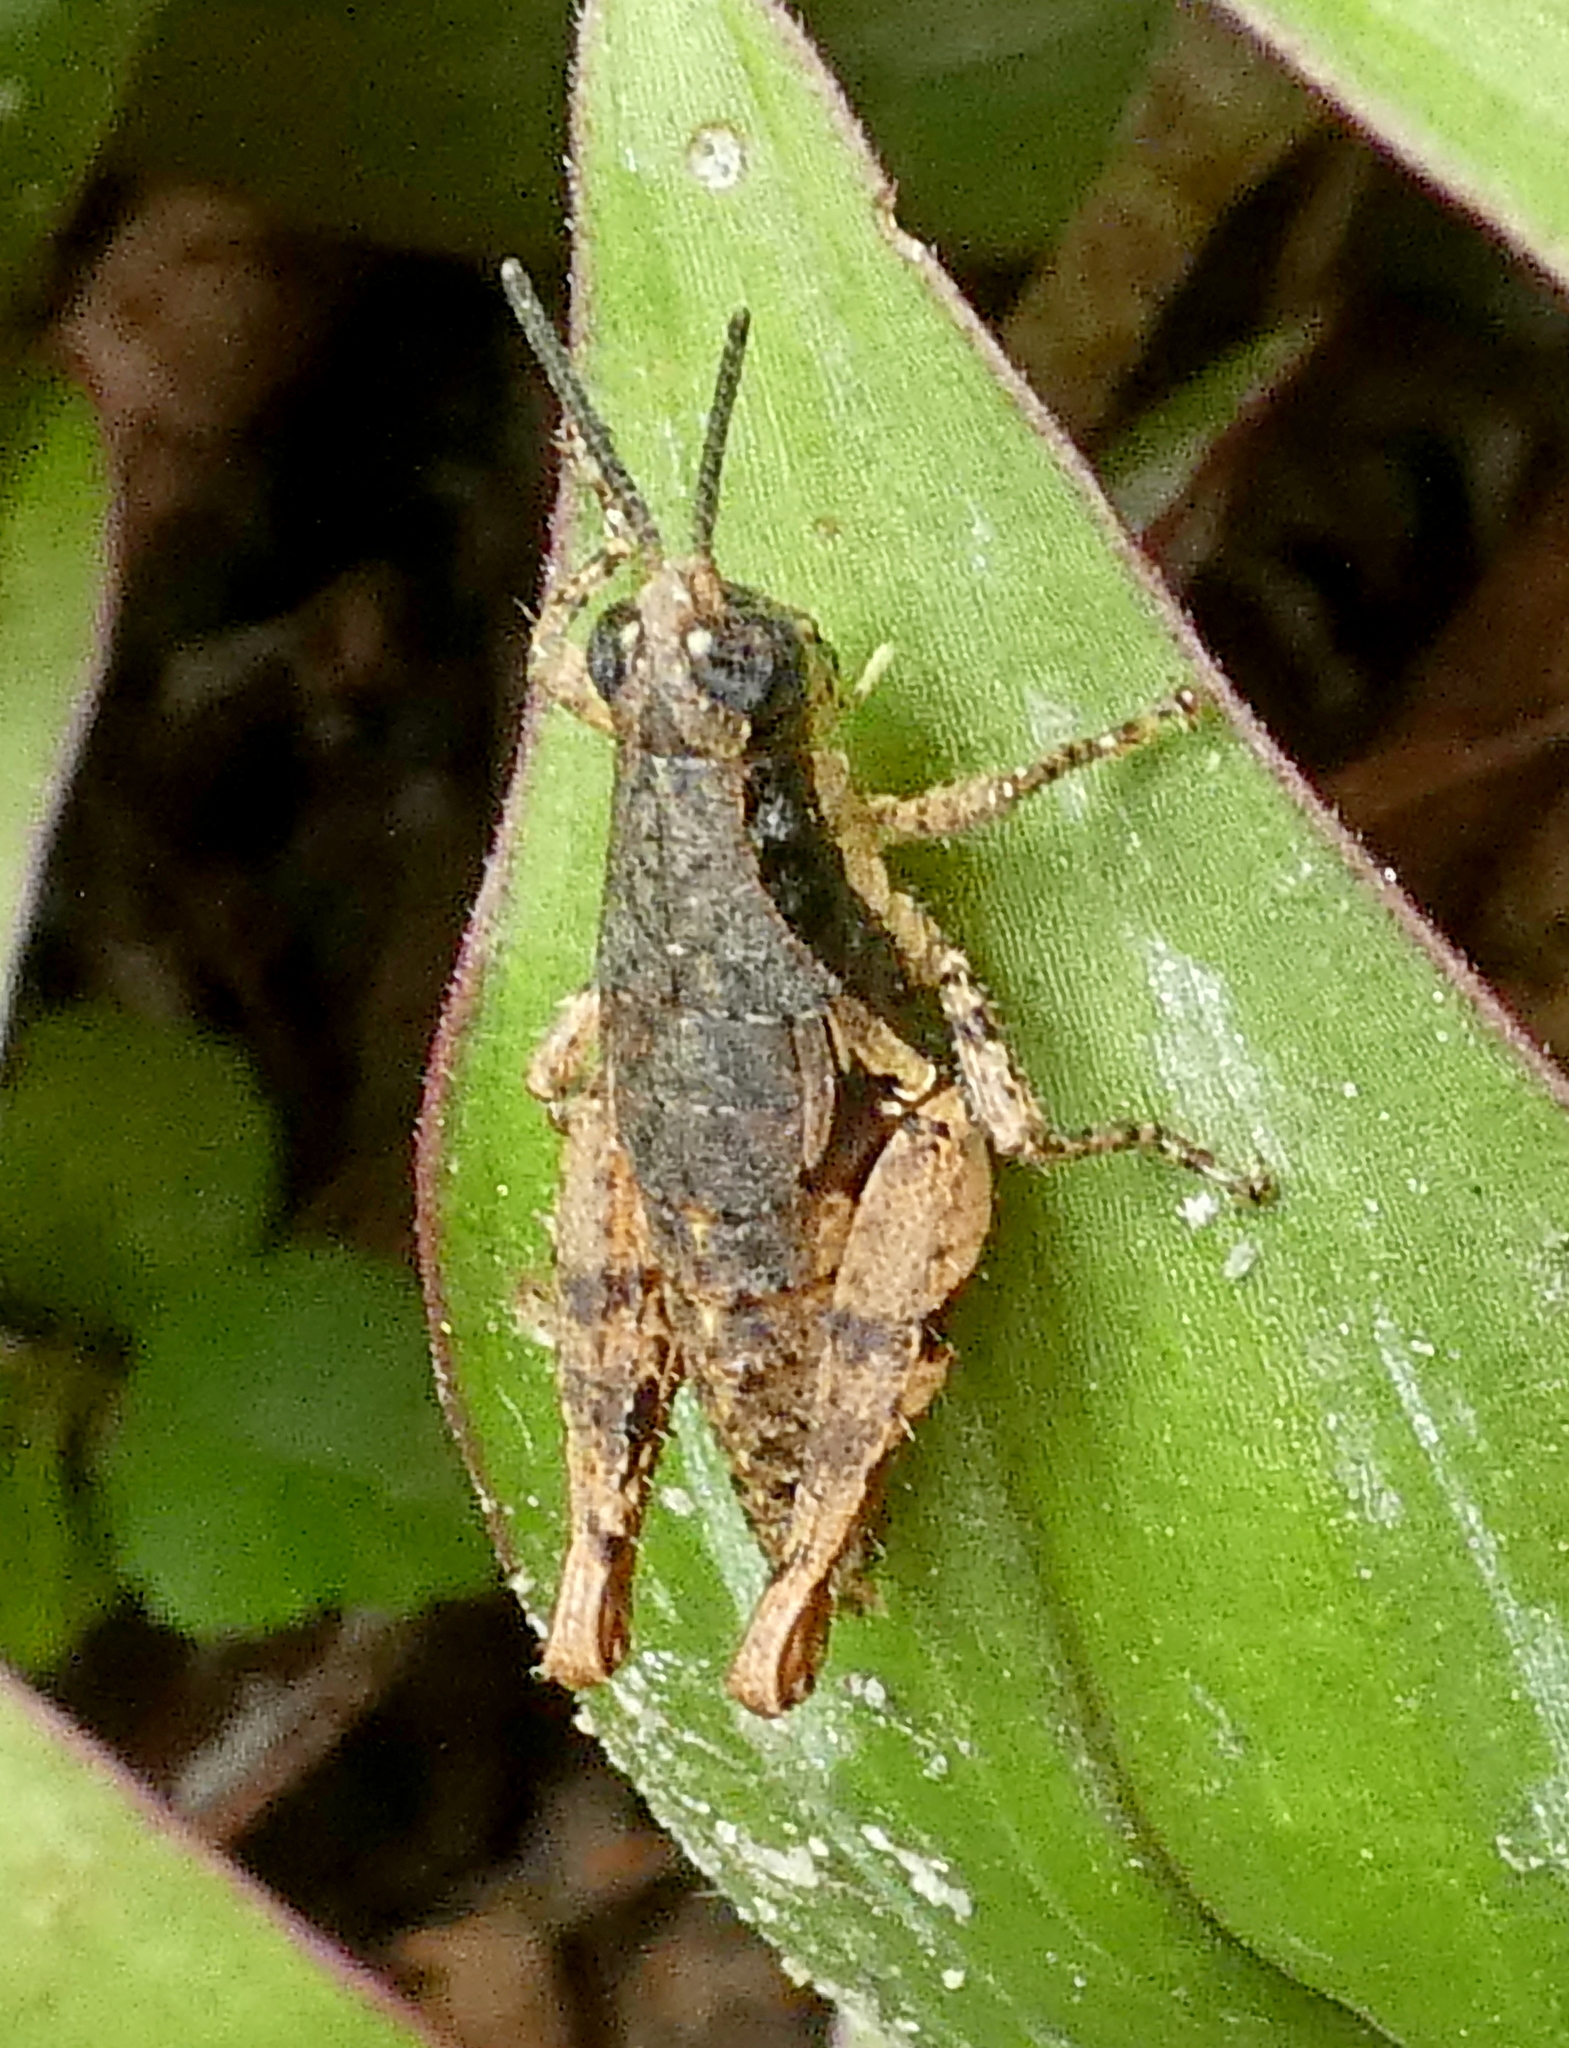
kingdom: Animalia
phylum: Arthropoda
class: Insecta
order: Orthoptera
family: Acrididae
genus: Eujivarus
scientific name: Eujivarus meridionalis
